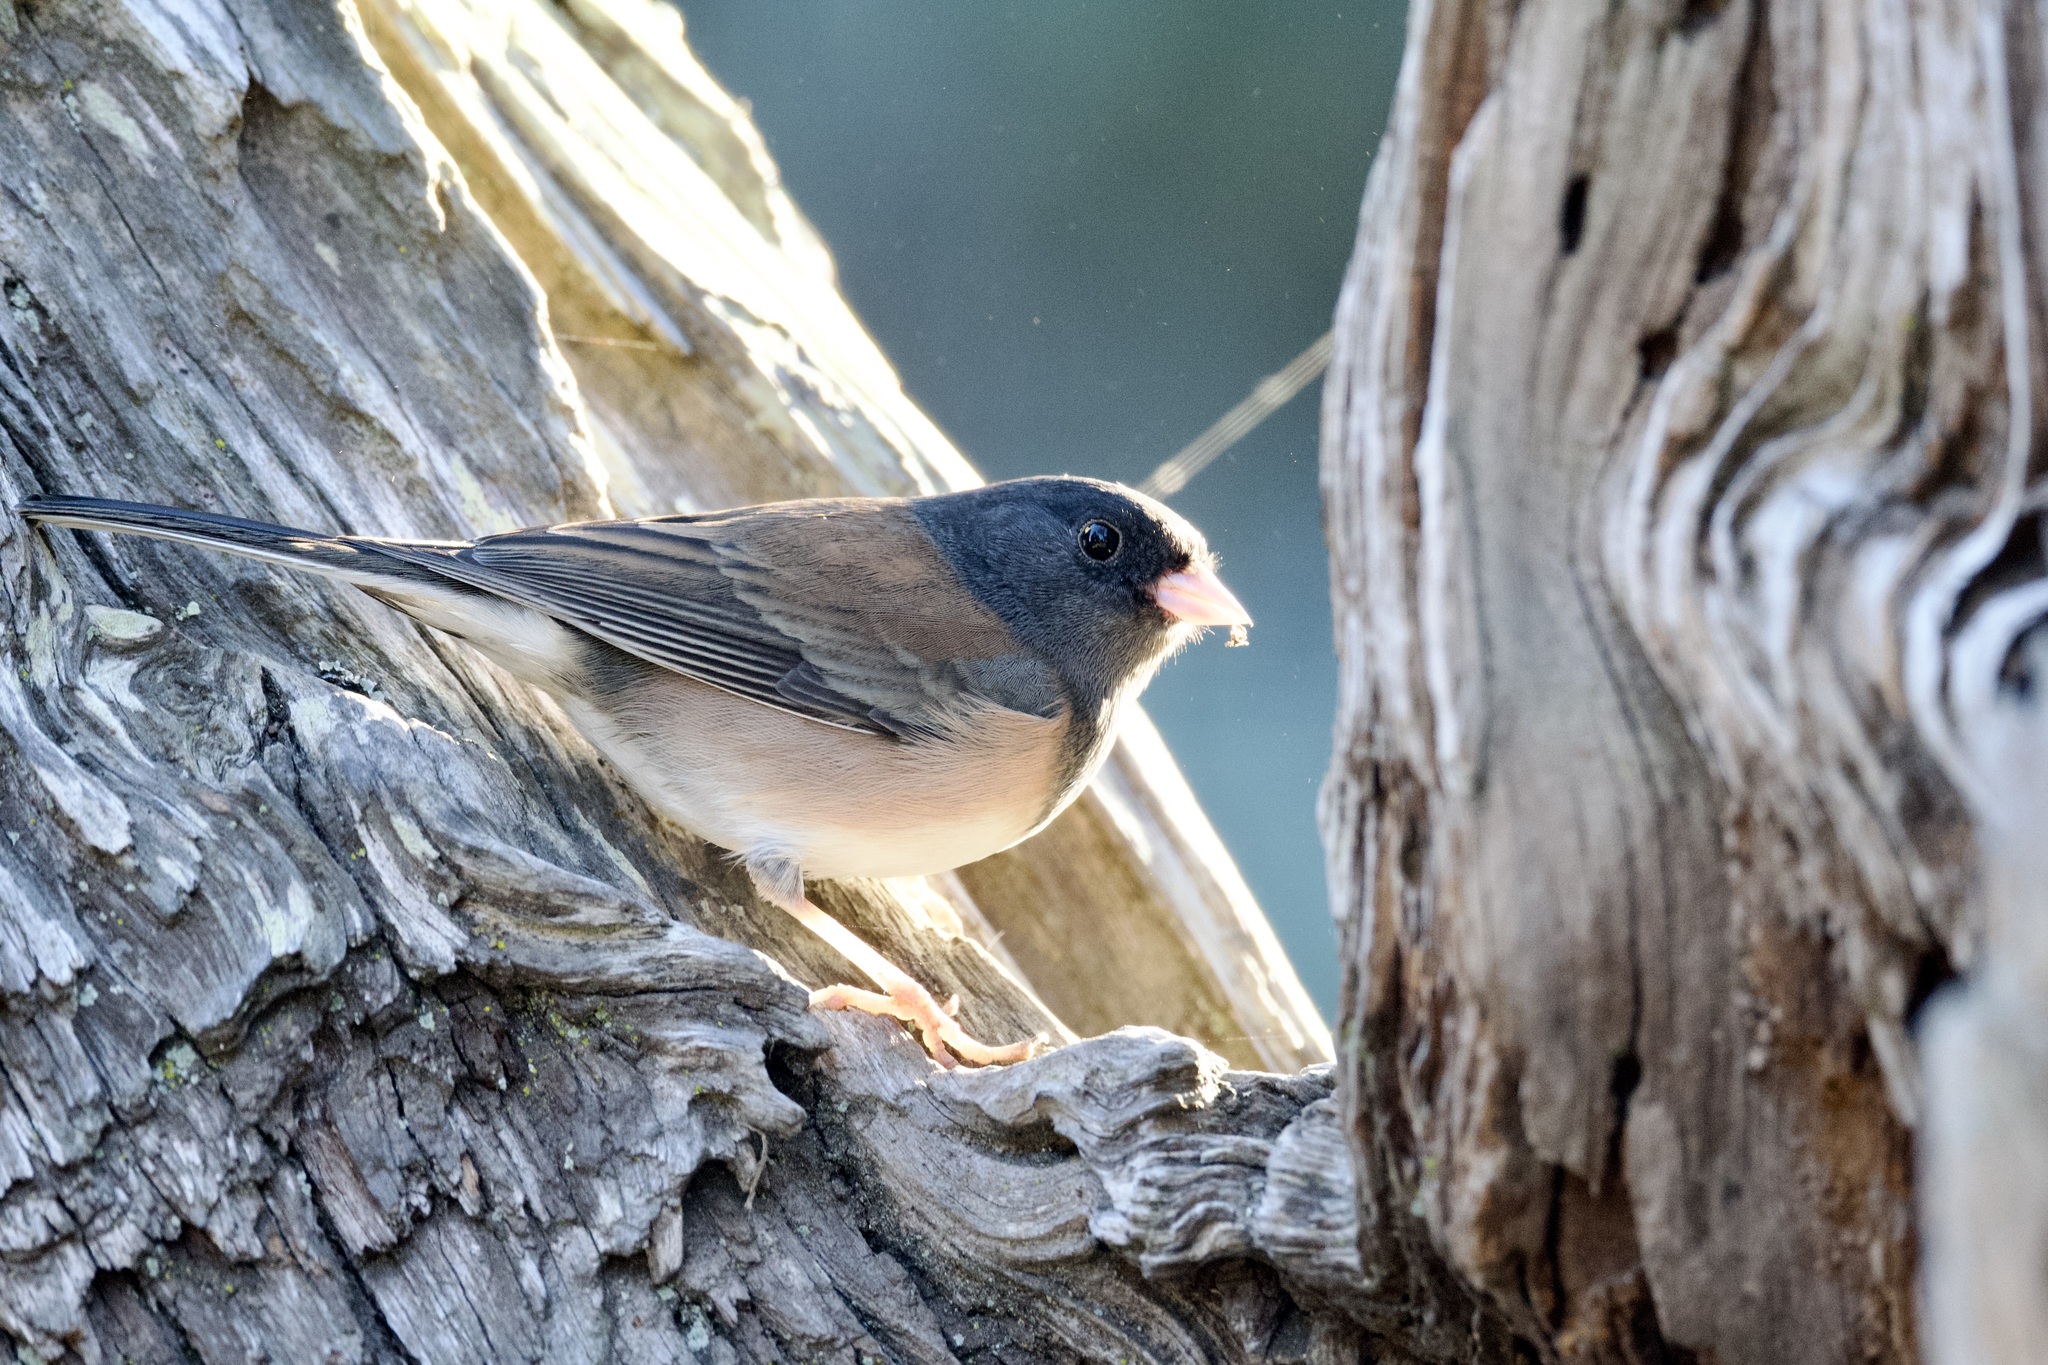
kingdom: Animalia
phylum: Chordata
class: Aves
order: Passeriformes
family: Passerellidae
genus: Junco
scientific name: Junco hyemalis
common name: Dark-eyed junco
